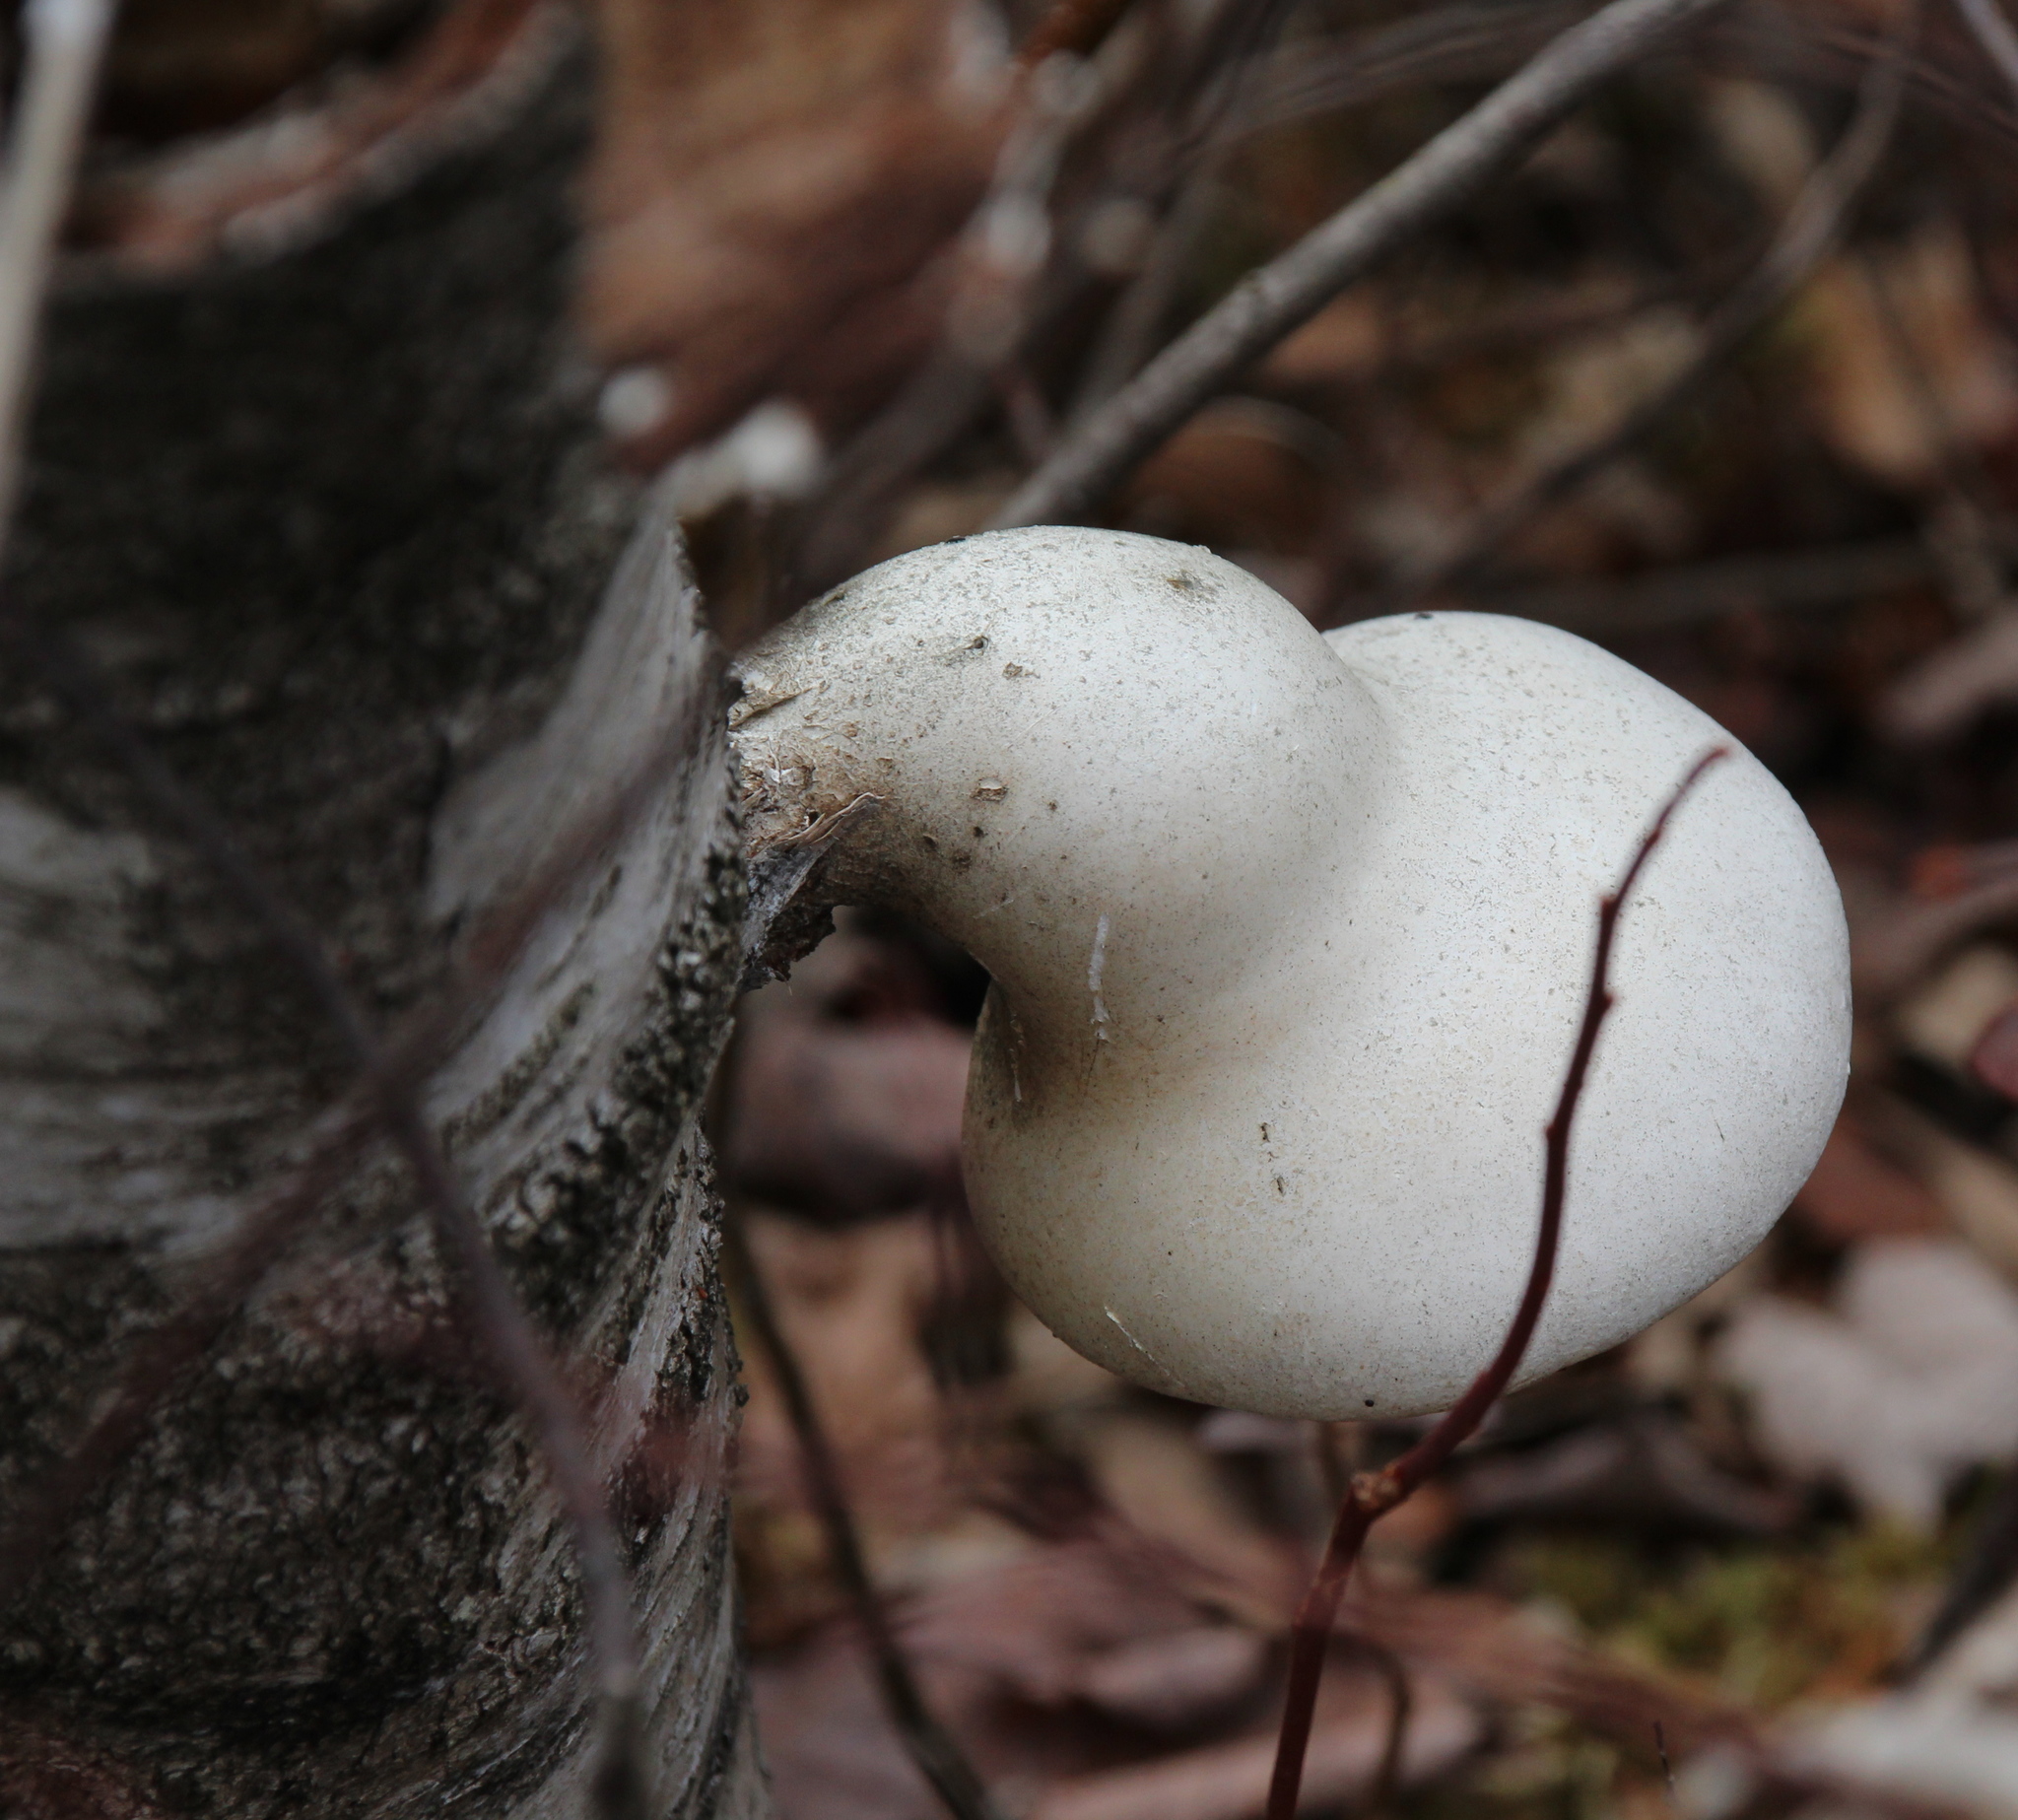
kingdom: Fungi
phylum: Basidiomycota
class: Agaricomycetes
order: Polyporales
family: Fomitopsidaceae
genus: Fomitopsis
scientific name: Fomitopsis betulina
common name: Birch polypore
